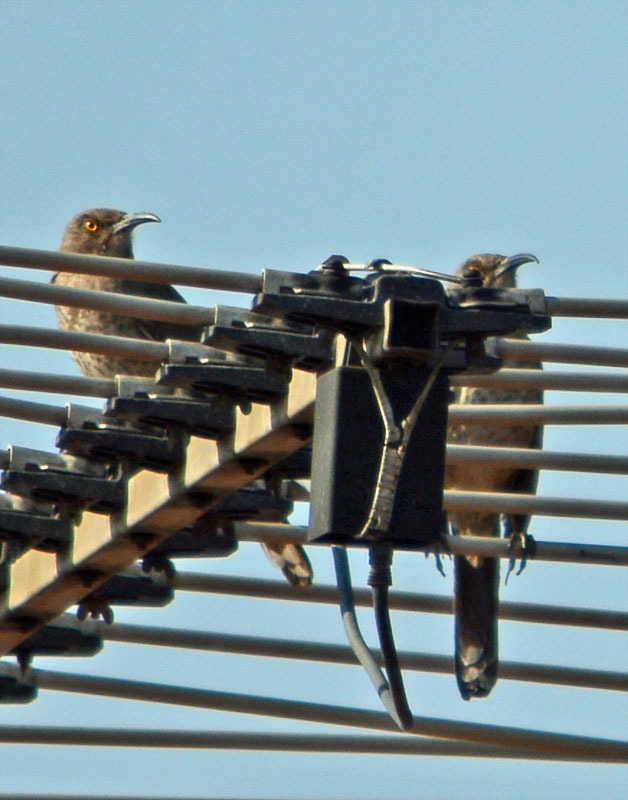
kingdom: Animalia
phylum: Chordata
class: Aves
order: Passeriformes
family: Mimidae
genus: Toxostoma
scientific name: Toxostoma curvirostre
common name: Curve-billed thrasher
